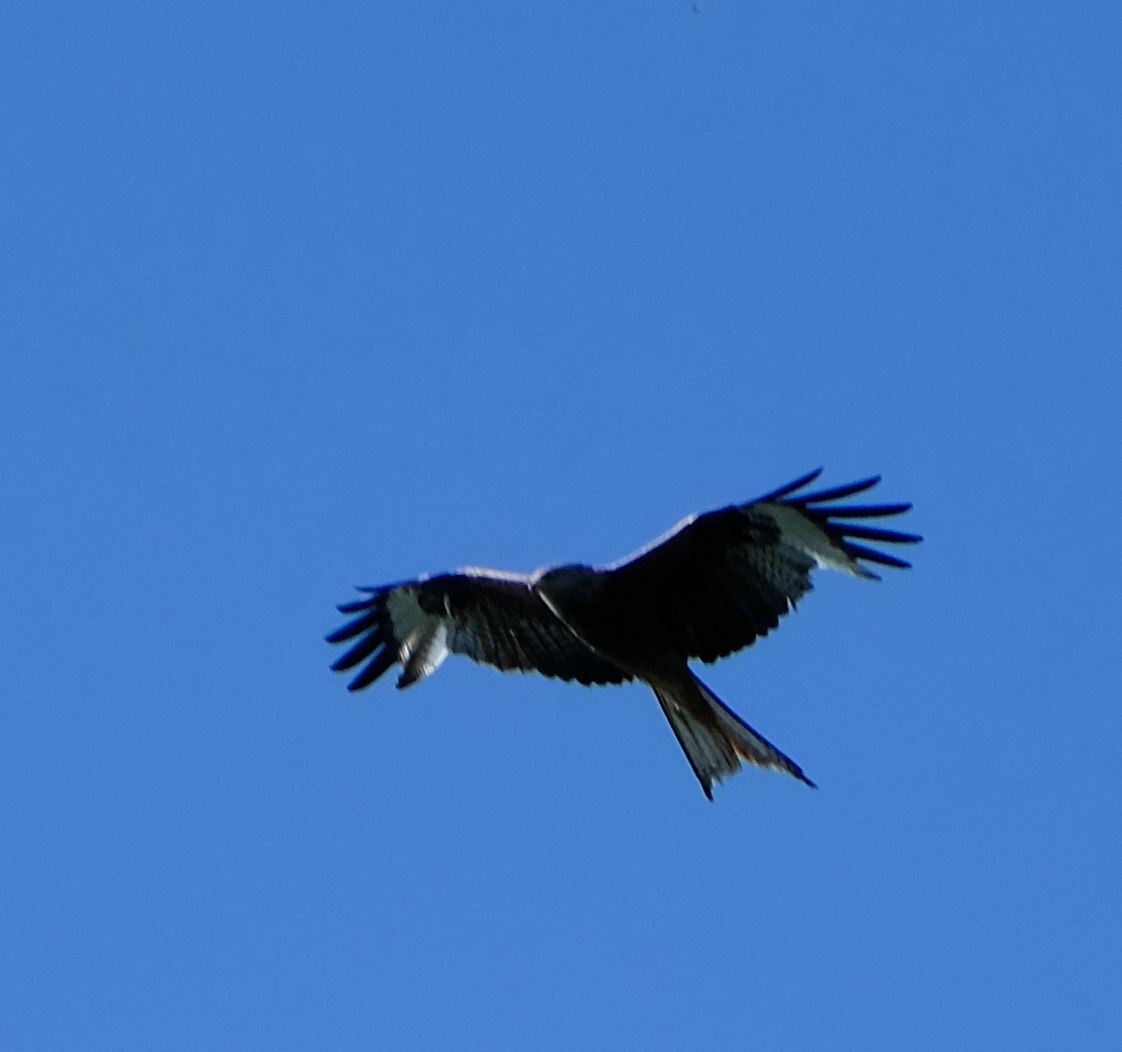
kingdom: Animalia
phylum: Chordata
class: Aves
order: Accipitriformes
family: Accipitridae
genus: Milvus
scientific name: Milvus milvus
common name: Red kite
